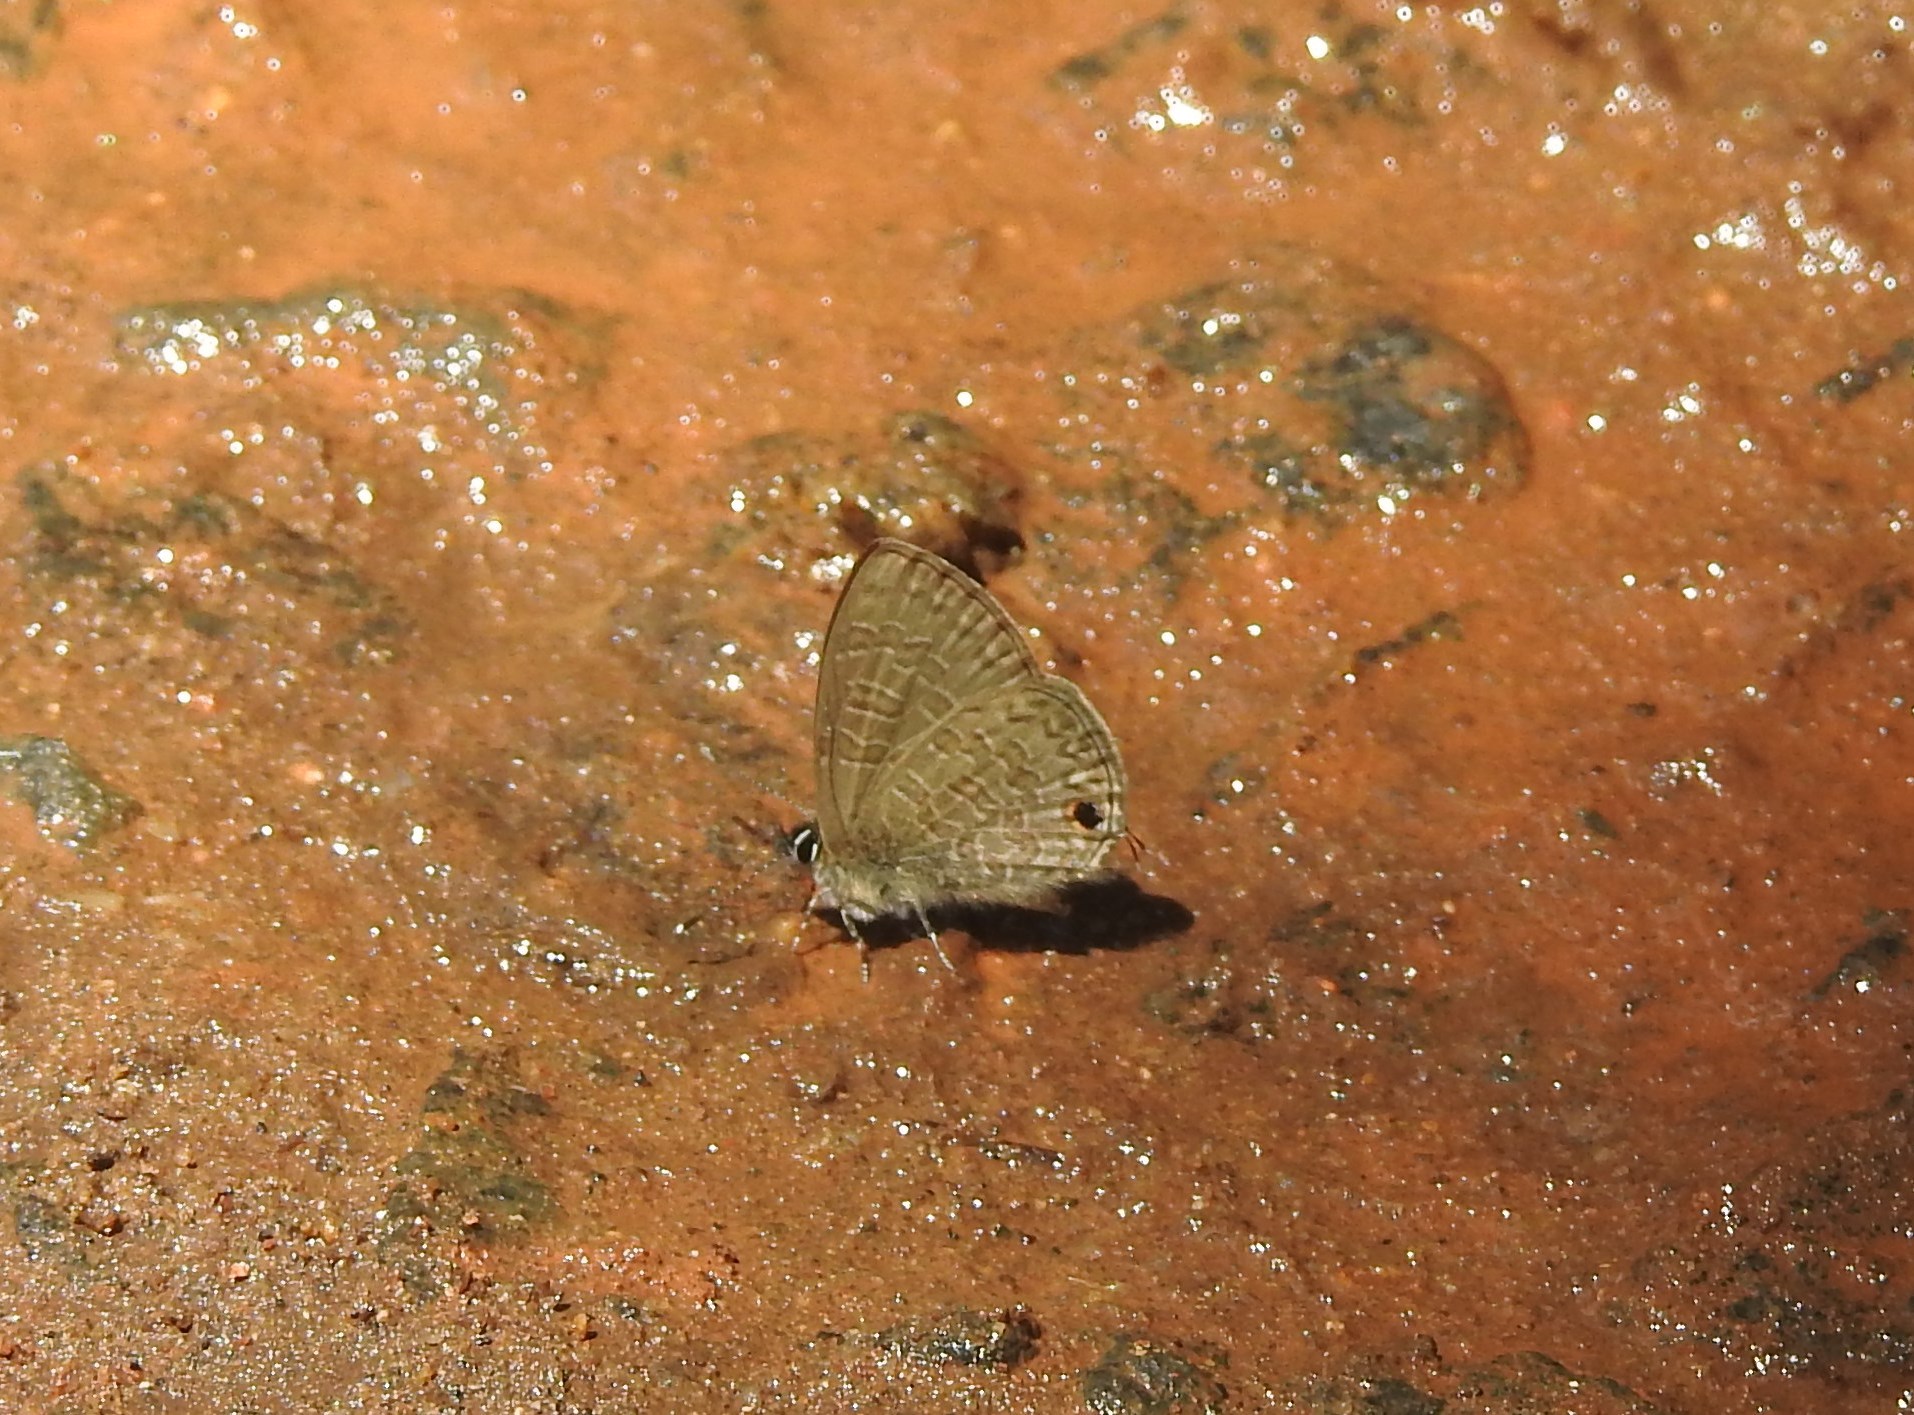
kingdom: Animalia
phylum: Arthropoda
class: Insecta
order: Lepidoptera
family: Lycaenidae
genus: Prosotas
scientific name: Prosotas nora
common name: Common line blue
